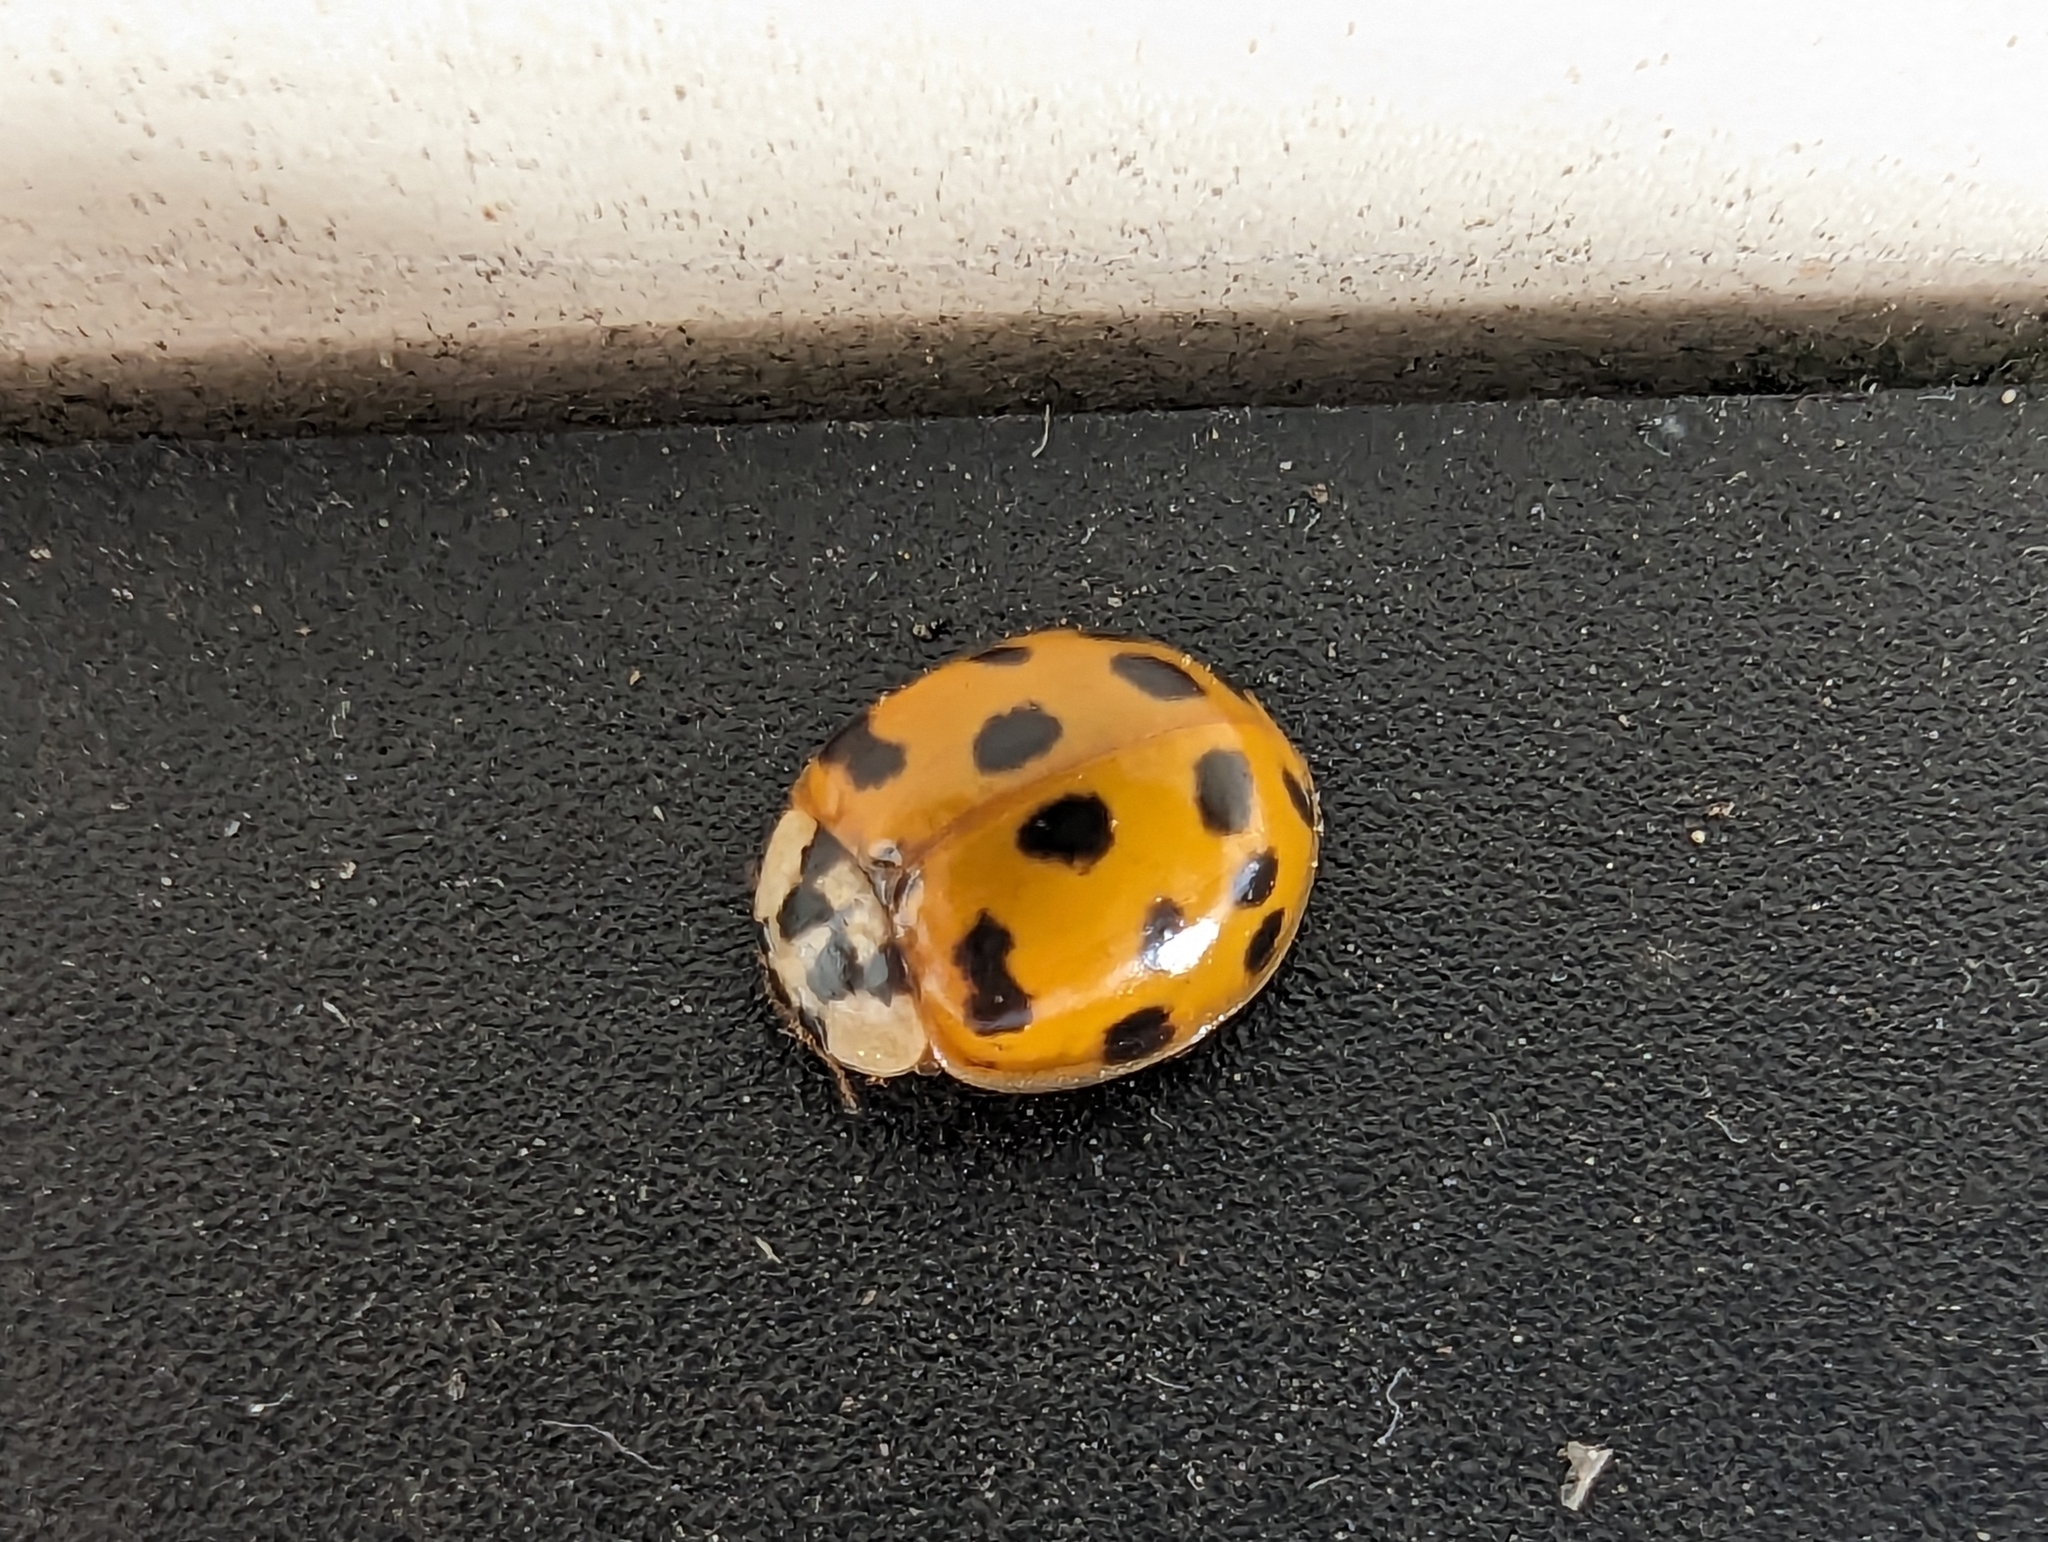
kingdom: Animalia
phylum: Arthropoda
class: Insecta
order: Coleoptera
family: Coccinellidae
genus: Harmonia
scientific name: Harmonia axyridis
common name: Harlequin ladybird
